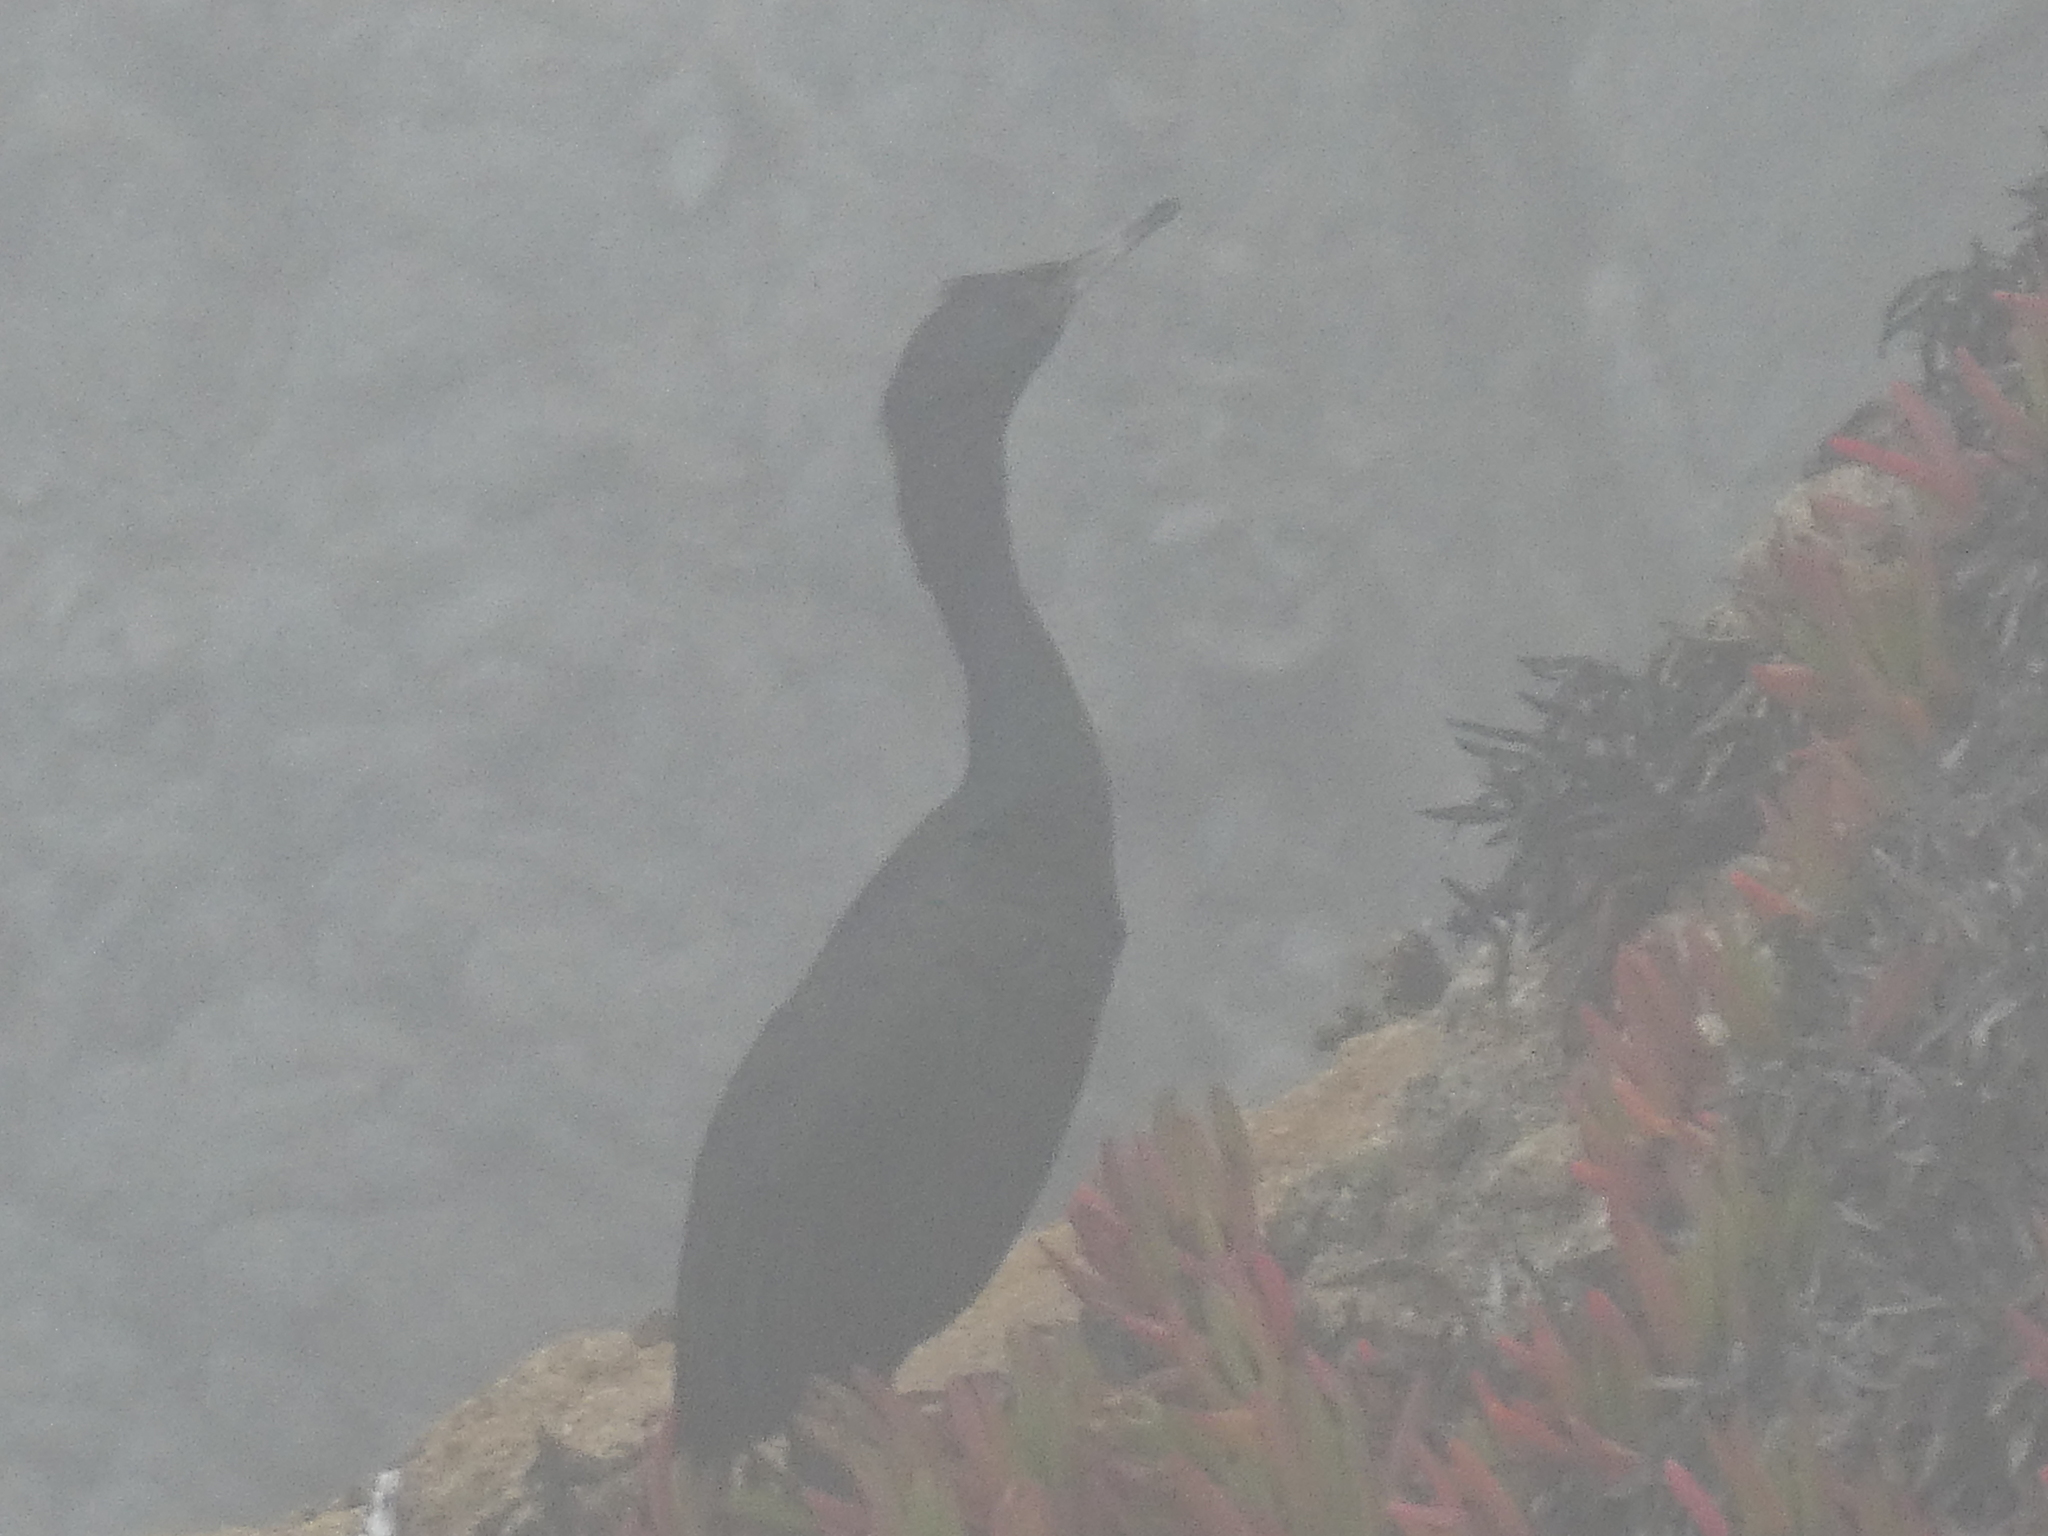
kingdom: Animalia
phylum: Chordata
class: Aves
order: Suliformes
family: Phalacrocoracidae
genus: Phalacrocorax
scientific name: Phalacrocorax pelagicus
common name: Pelagic cormorant
